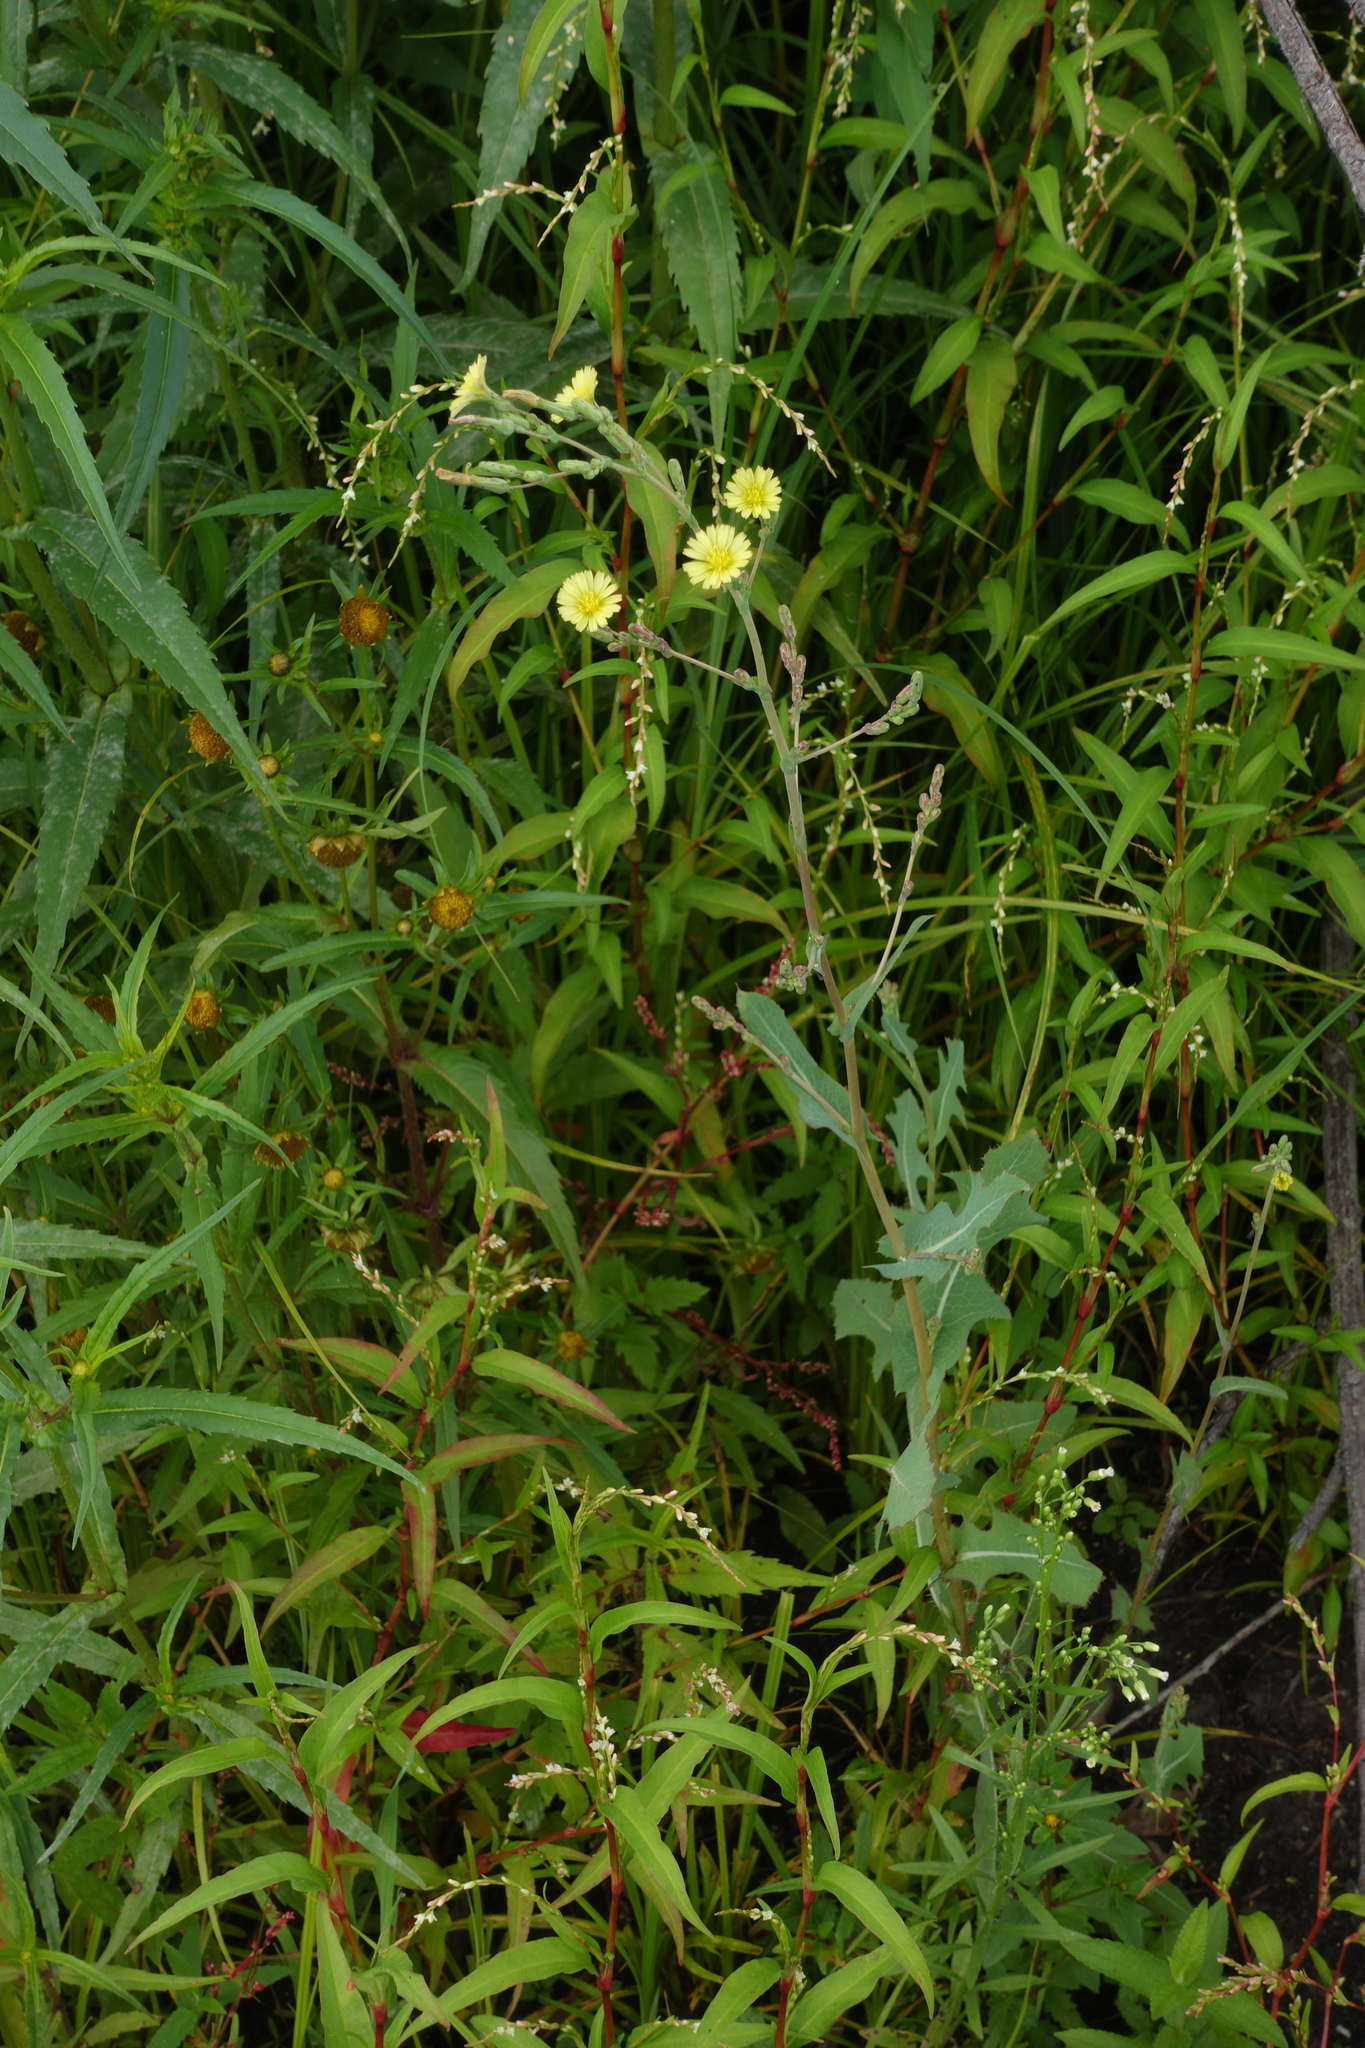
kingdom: Plantae
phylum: Tracheophyta
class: Magnoliopsida
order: Caryophyllales
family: Polygonaceae
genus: Persicaria
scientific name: Persicaria hydropiper
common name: Water-pepper
